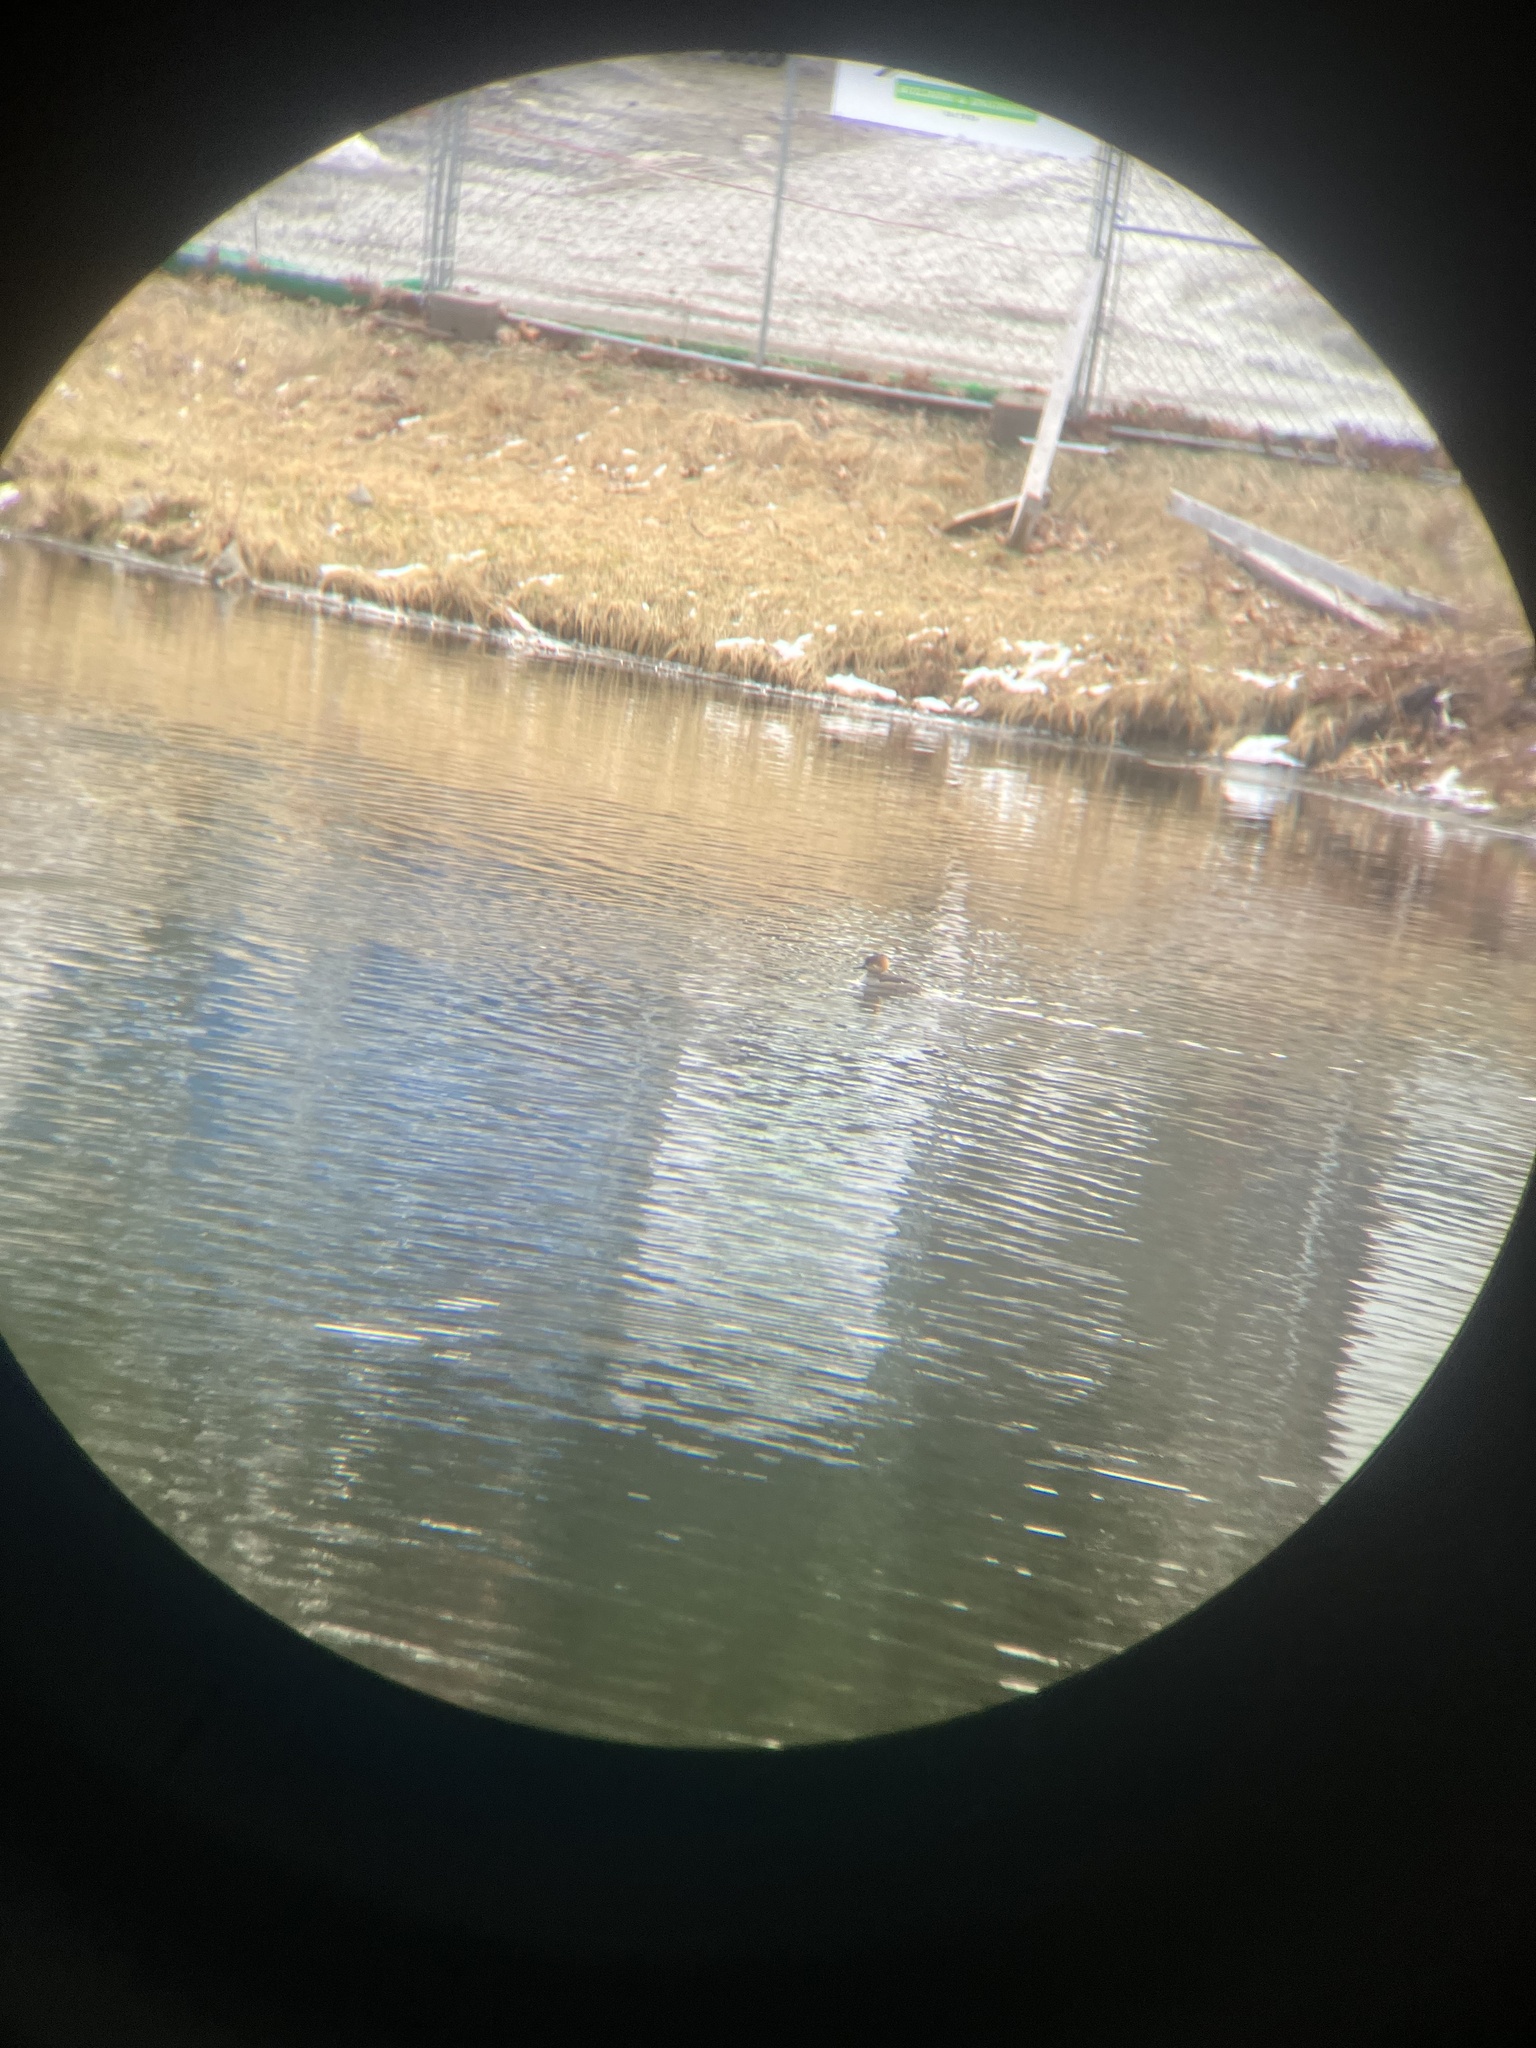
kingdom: Animalia
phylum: Chordata
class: Aves
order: Anseriformes
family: Anatidae
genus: Lophodytes
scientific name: Lophodytes cucullatus
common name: Hooded merganser
